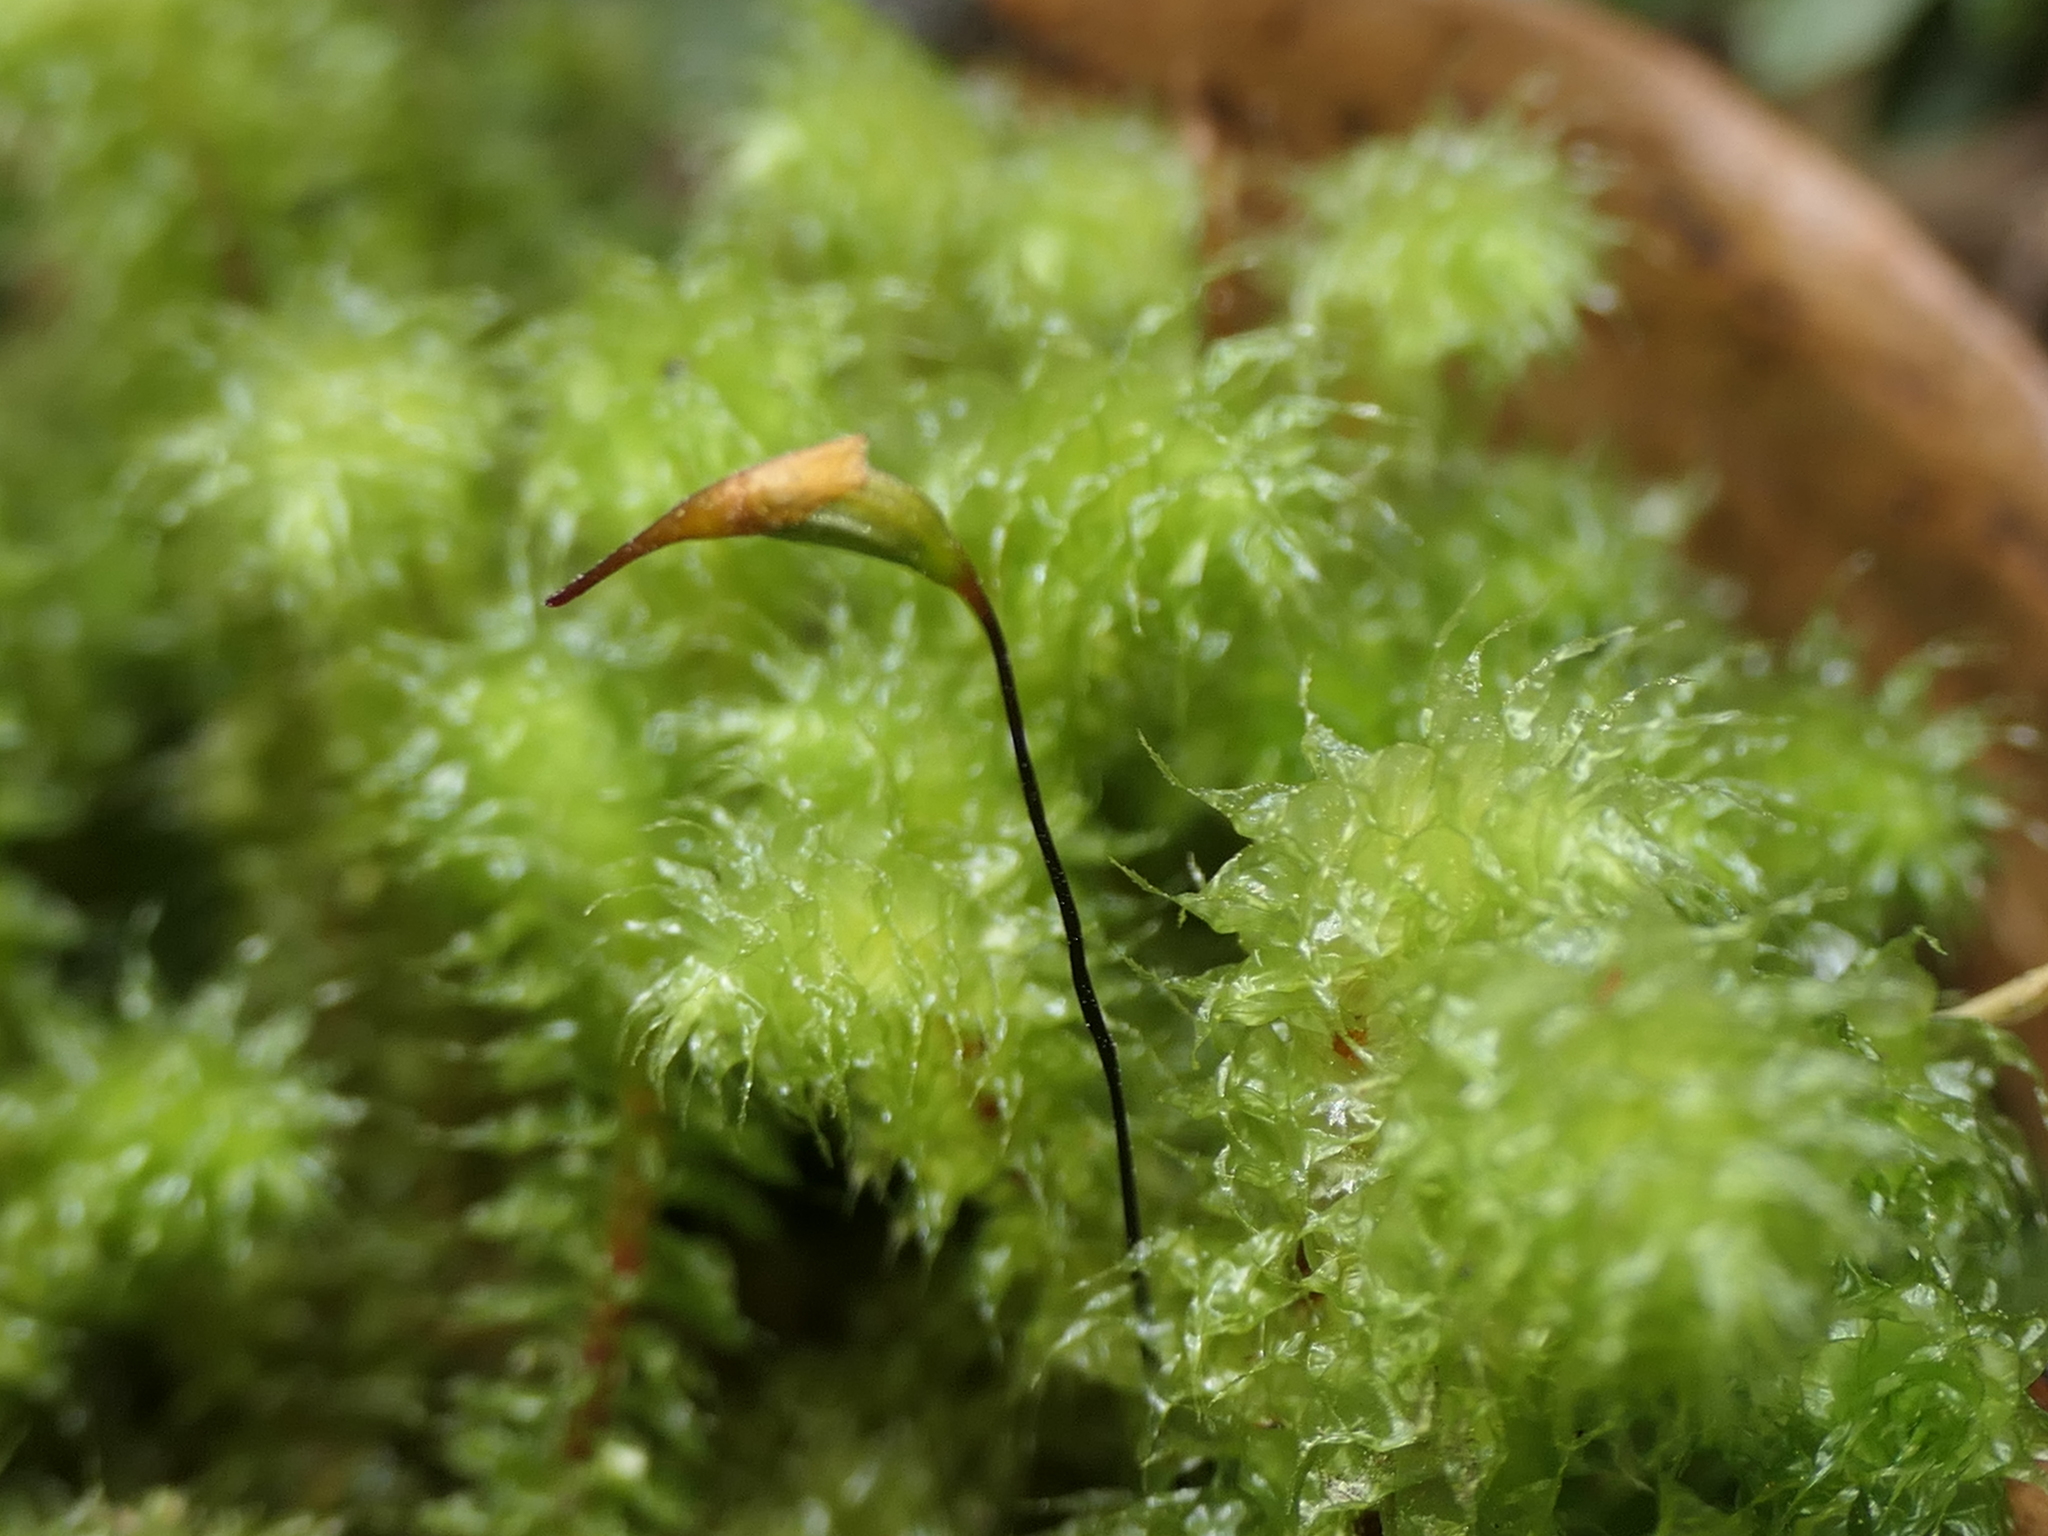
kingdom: Plantae
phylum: Bryophyta
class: Bryopsida
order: Ptychomniales
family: Ptychomniaceae
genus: Ptychomnion
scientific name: Ptychomnion aciculare
